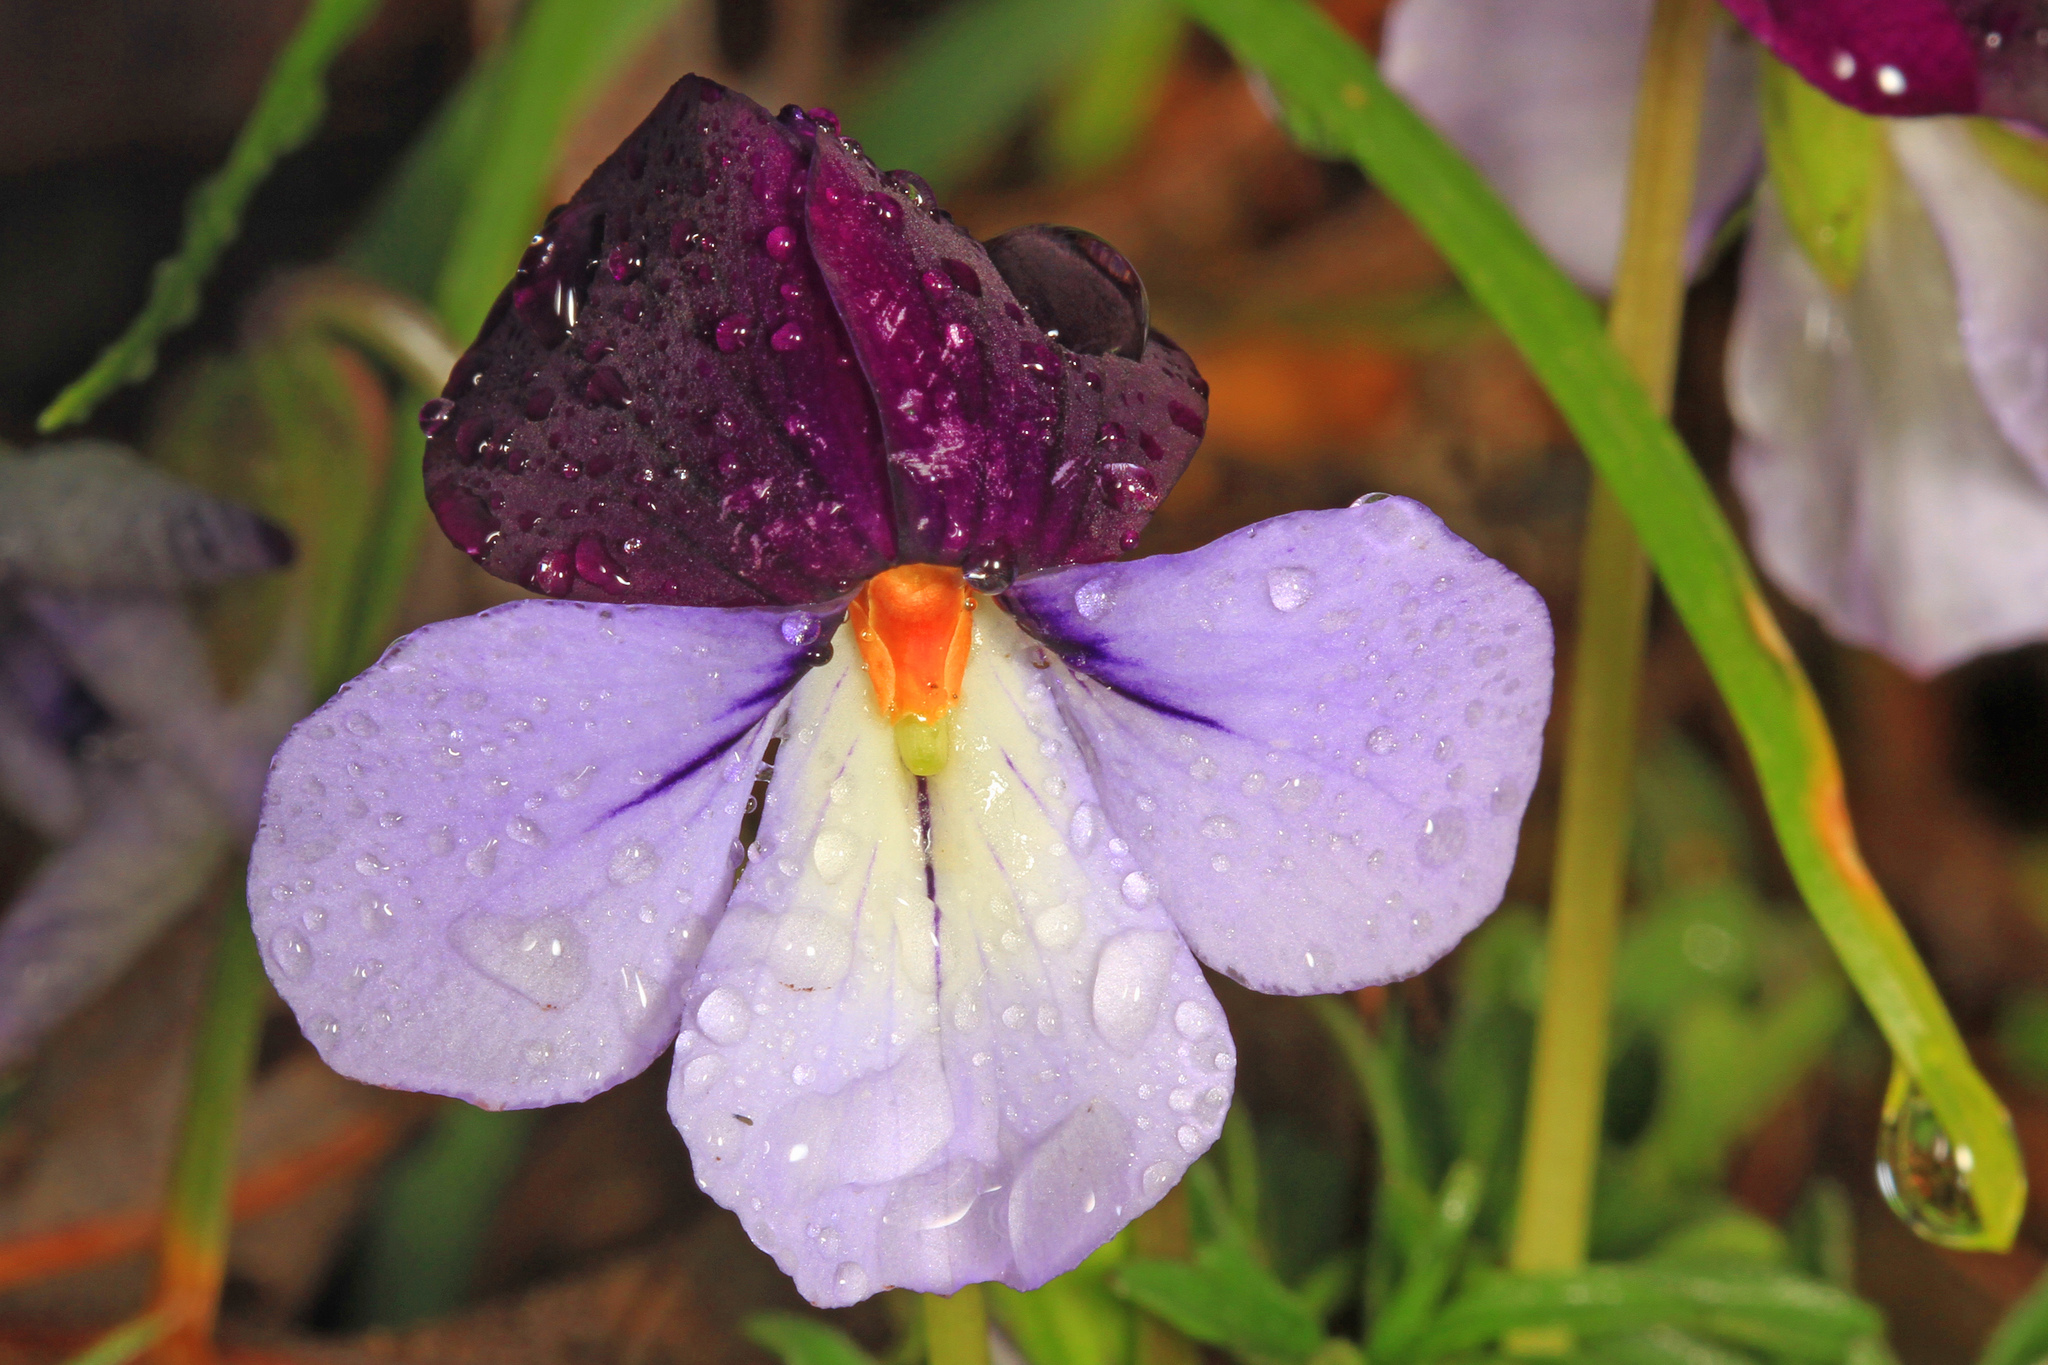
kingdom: Plantae
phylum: Tracheophyta
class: Magnoliopsida
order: Malpighiales
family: Violaceae
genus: Viola
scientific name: Viola pedata
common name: Pansy violet
